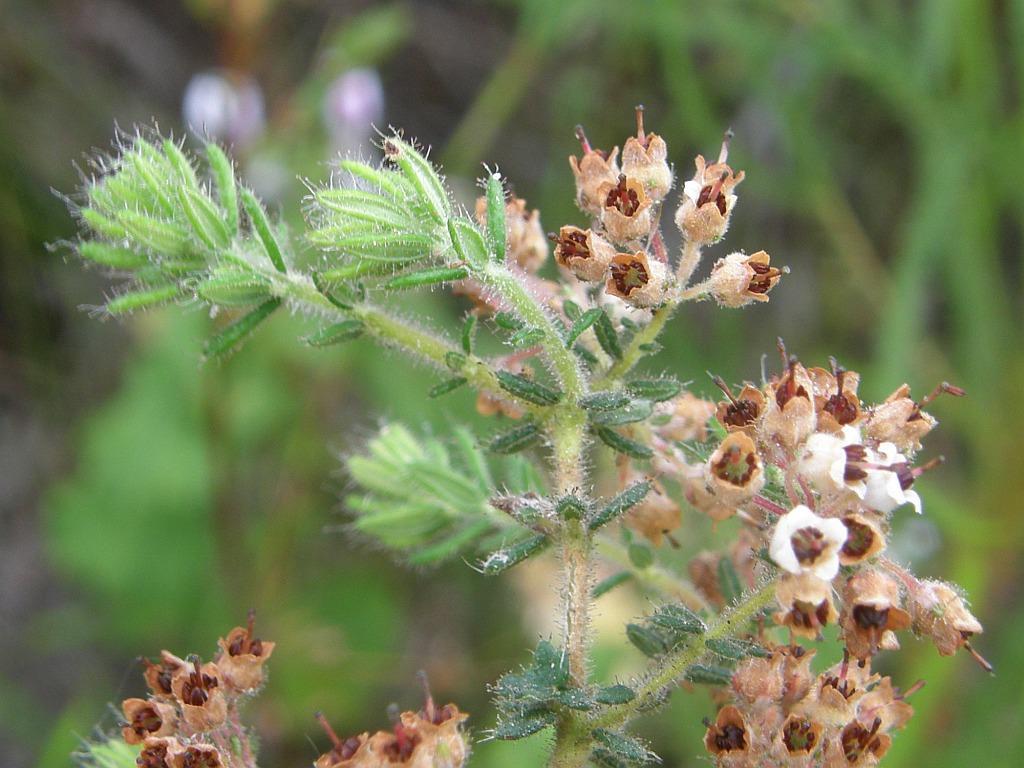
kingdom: Plantae
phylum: Tracheophyta
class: Magnoliopsida
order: Ericales
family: Ericaceae
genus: Erica
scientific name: Erica perlata
